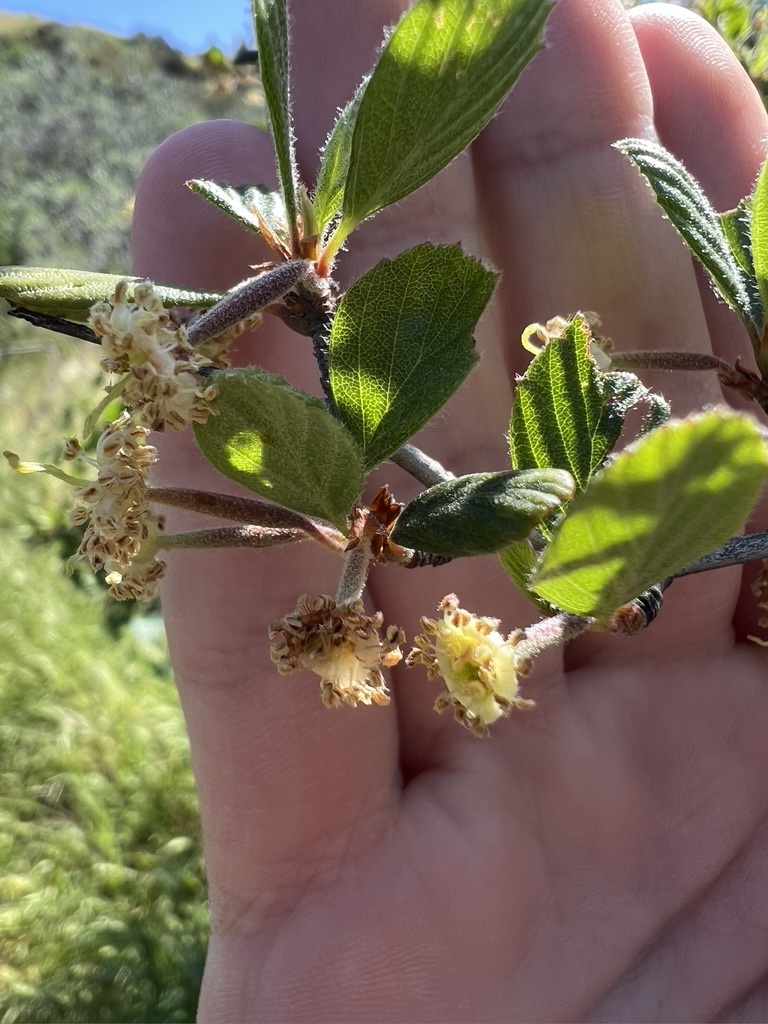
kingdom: Plantae
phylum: Tracheophyta
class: Magnoliopsida
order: Rosales
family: Rosaceae
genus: Cercocarpus
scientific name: Cercocarpus betuloides
